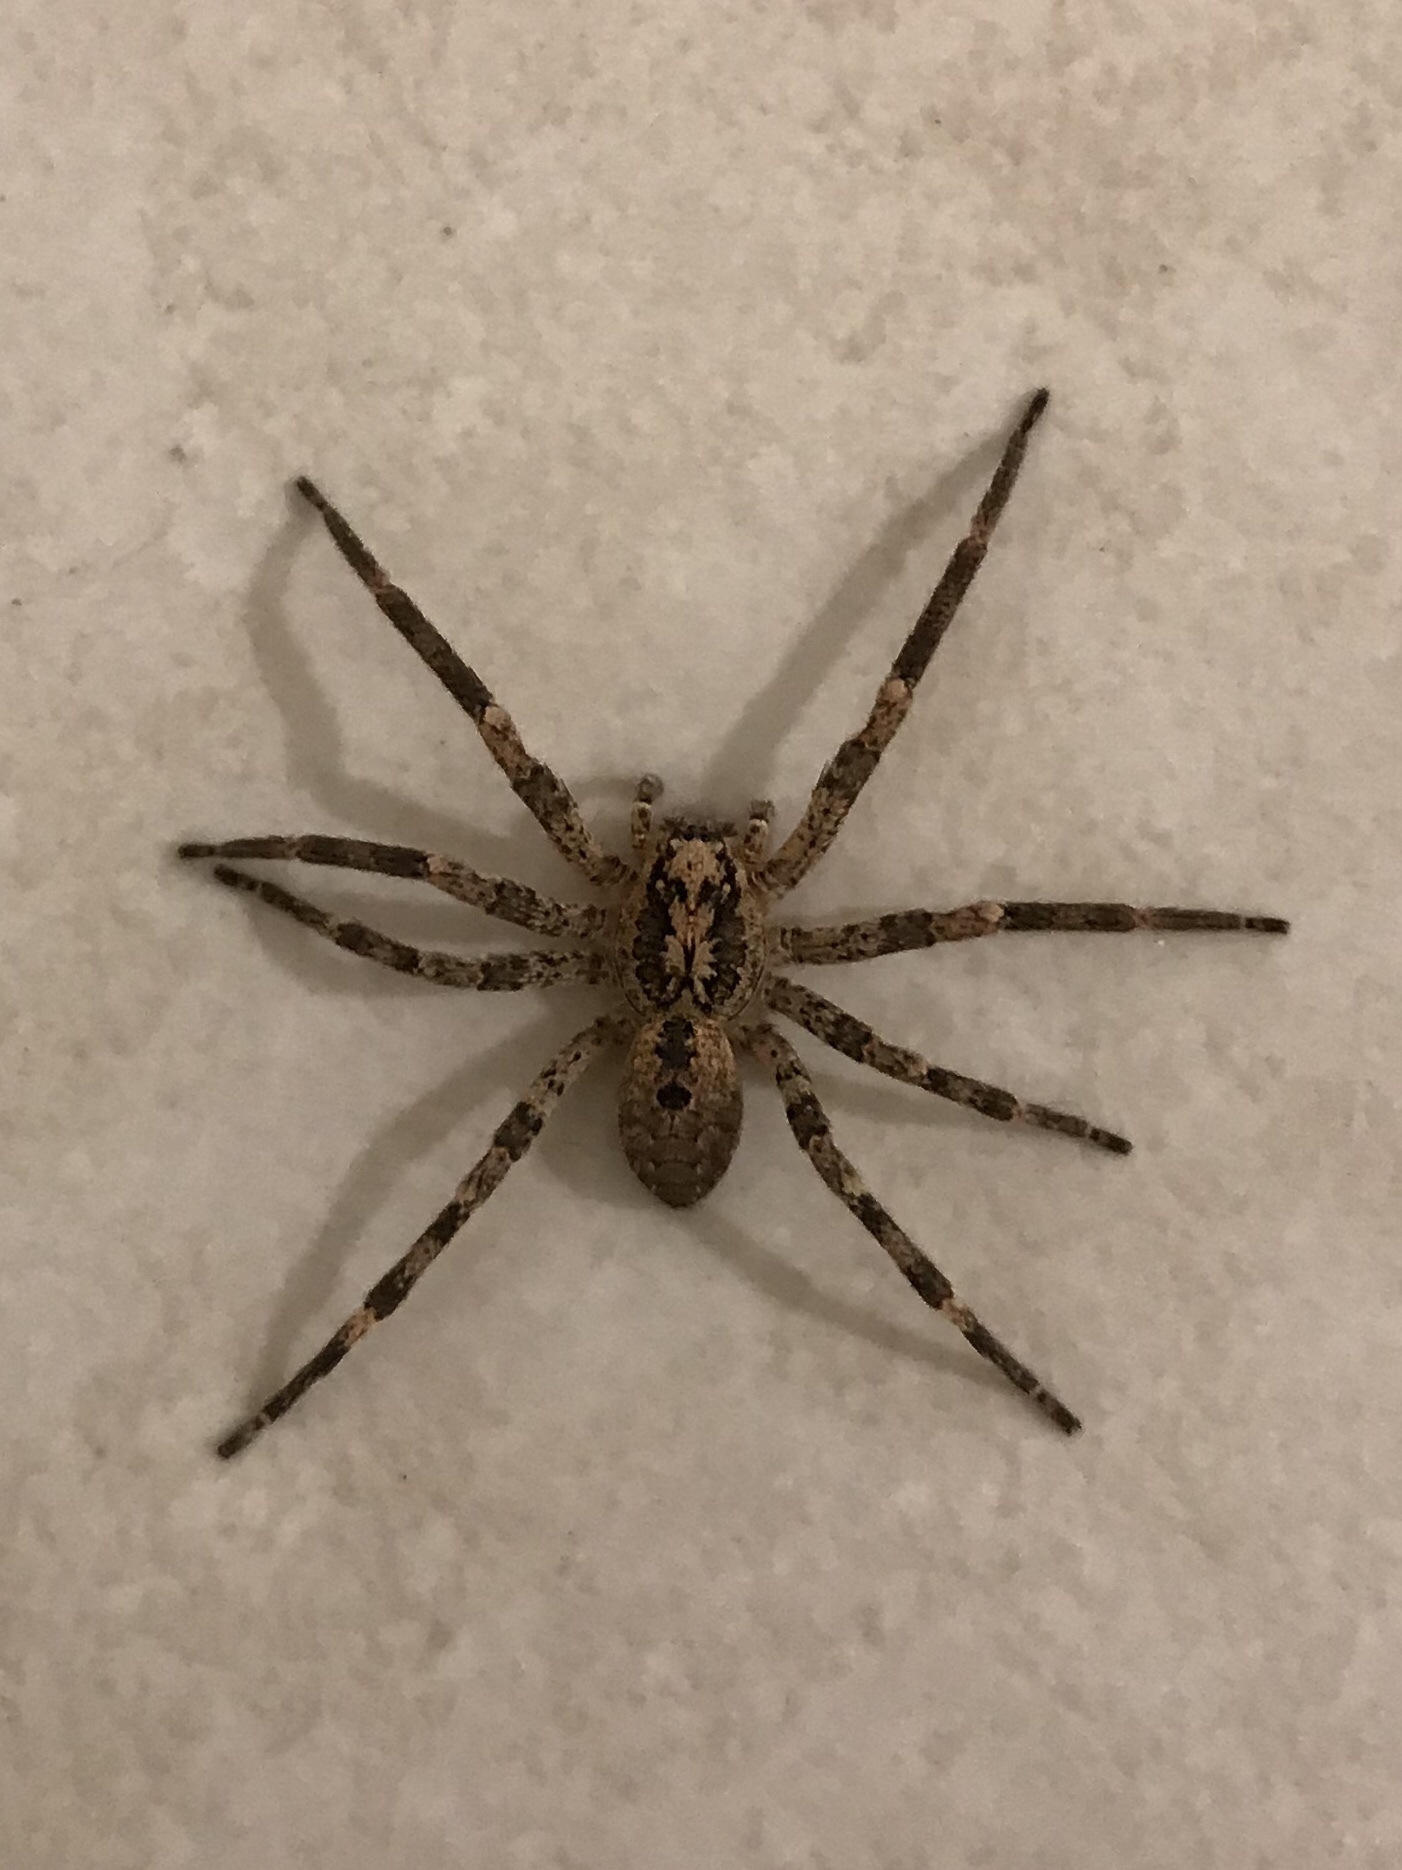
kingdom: Animalia
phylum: Arthropoda
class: Arachnida
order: Araneae
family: Zoropsidae
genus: Zoropsis
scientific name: Zoropsis spinimana
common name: Zoropsid spider
